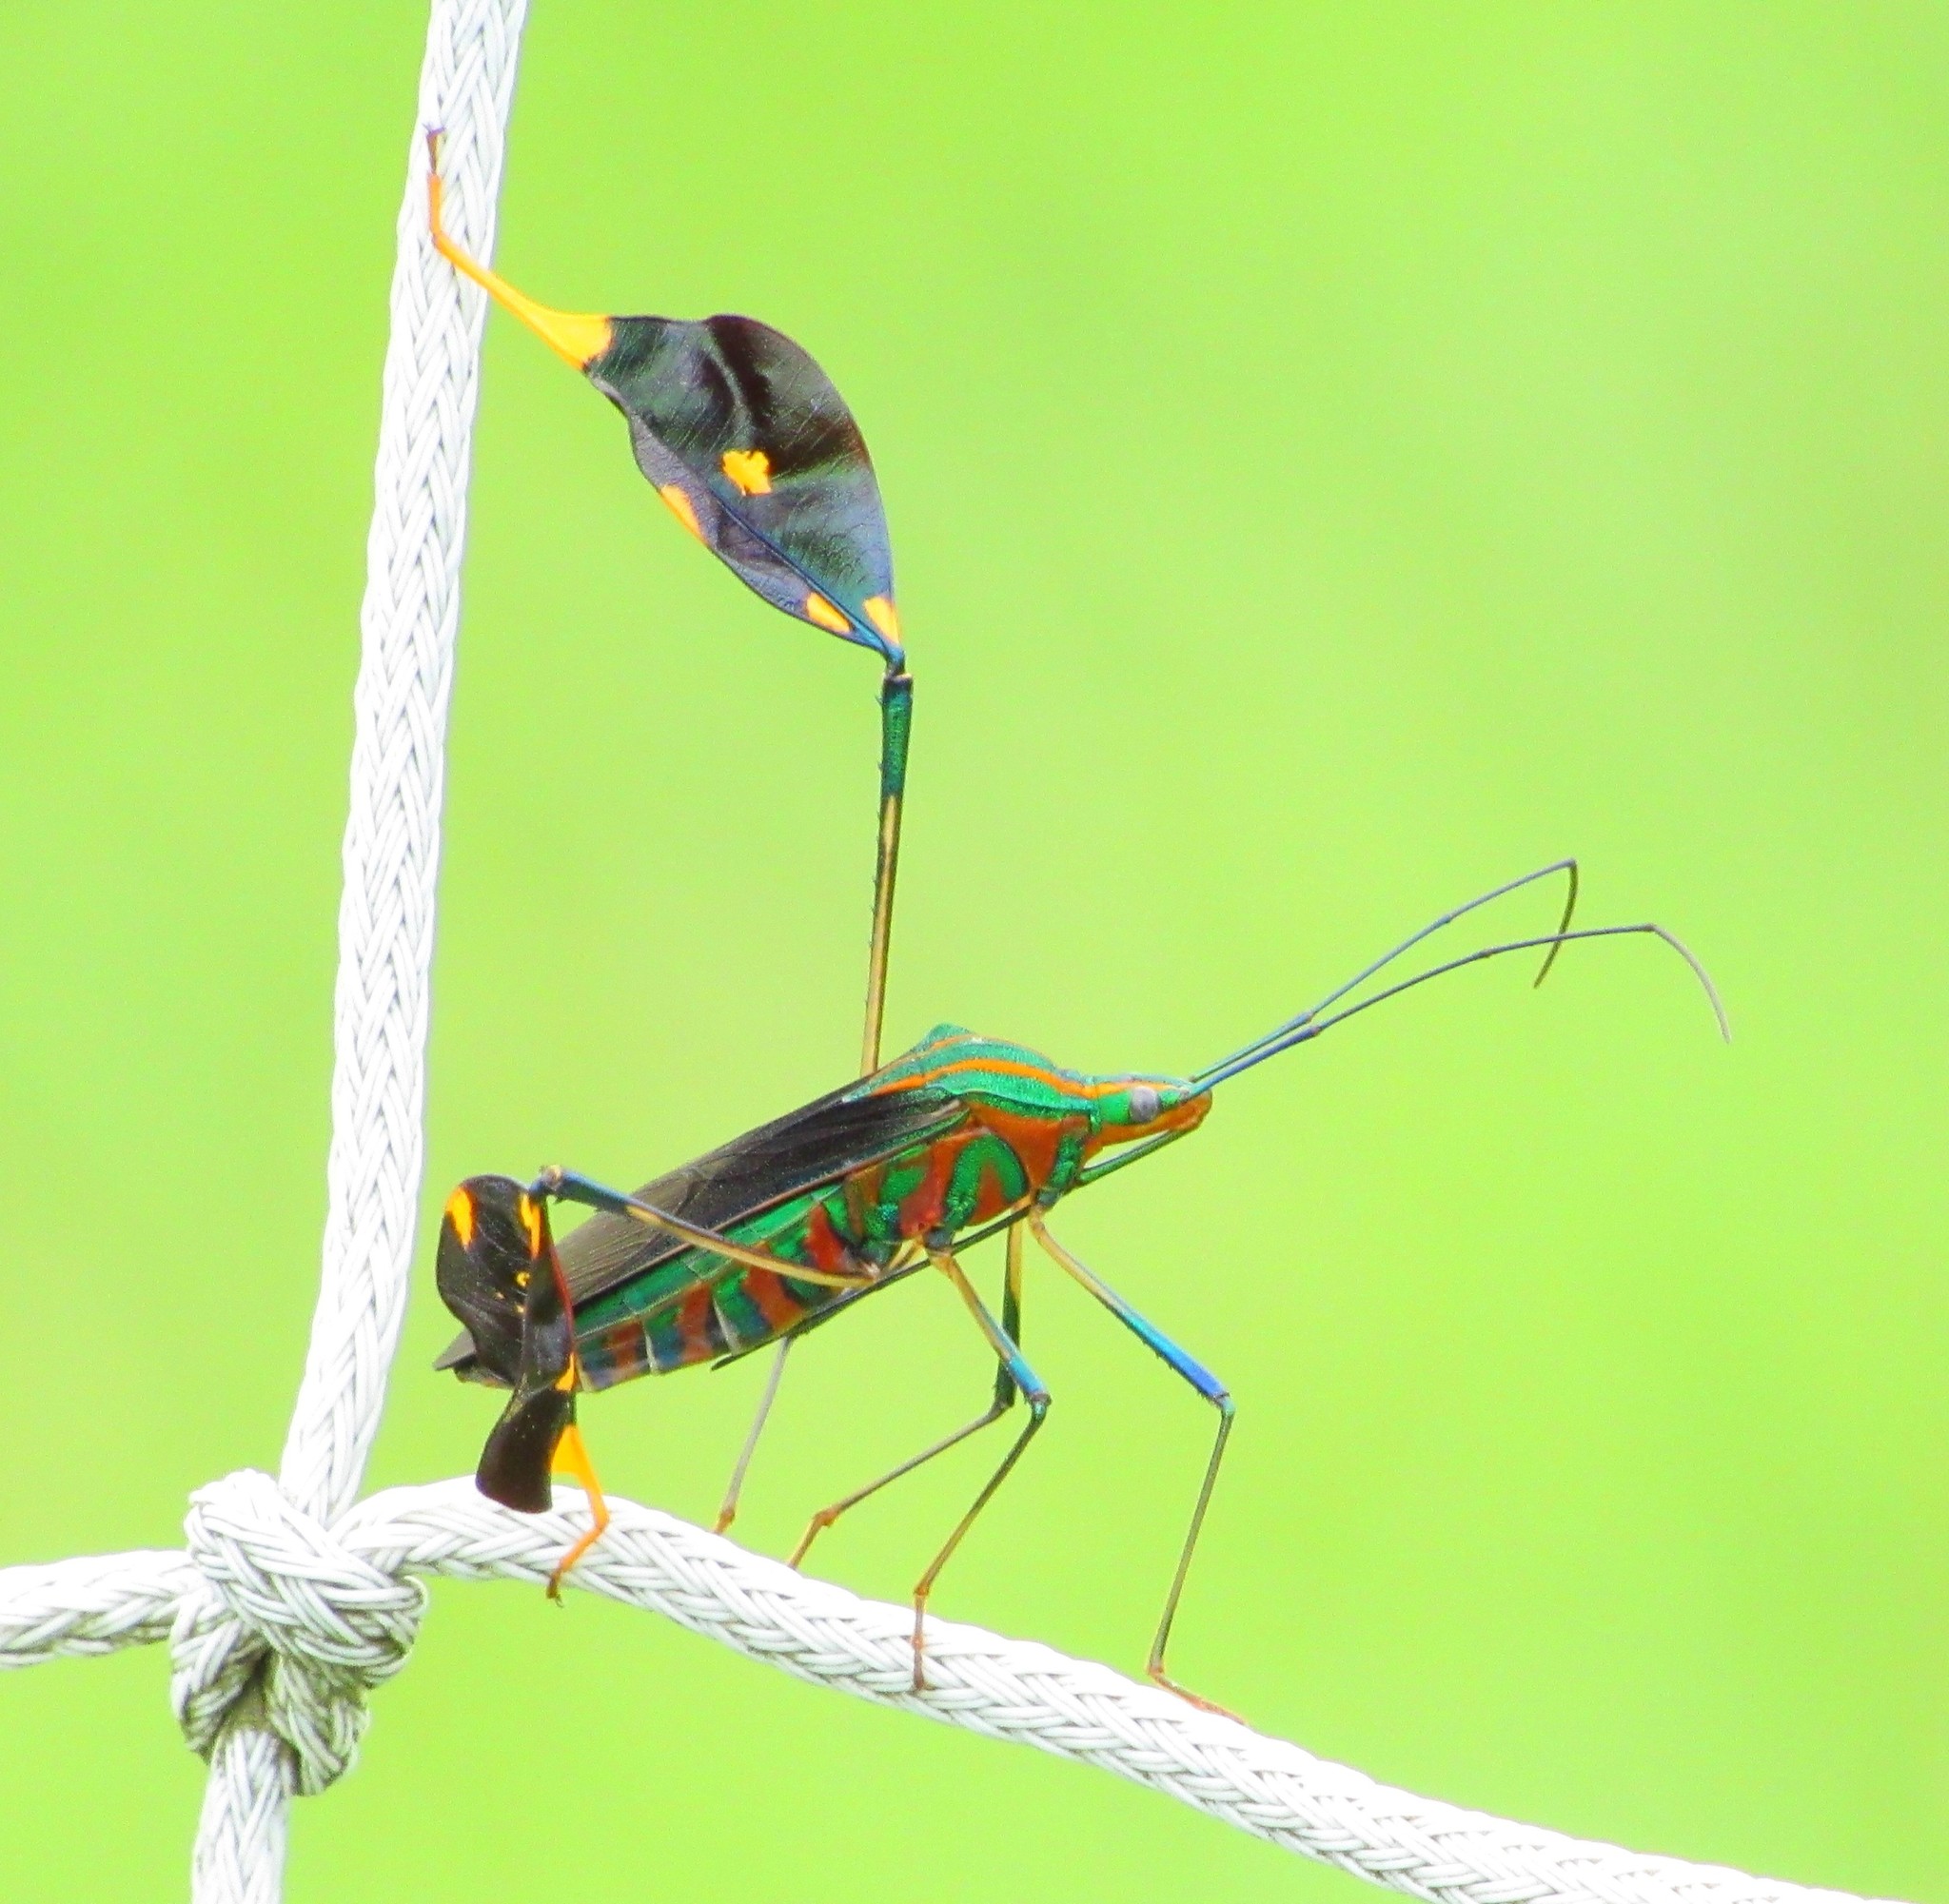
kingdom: Animalia
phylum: Arthropoda
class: Insecta
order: Hemiptera
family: Coreidae
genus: Diactor
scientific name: Diactor bilineatus
